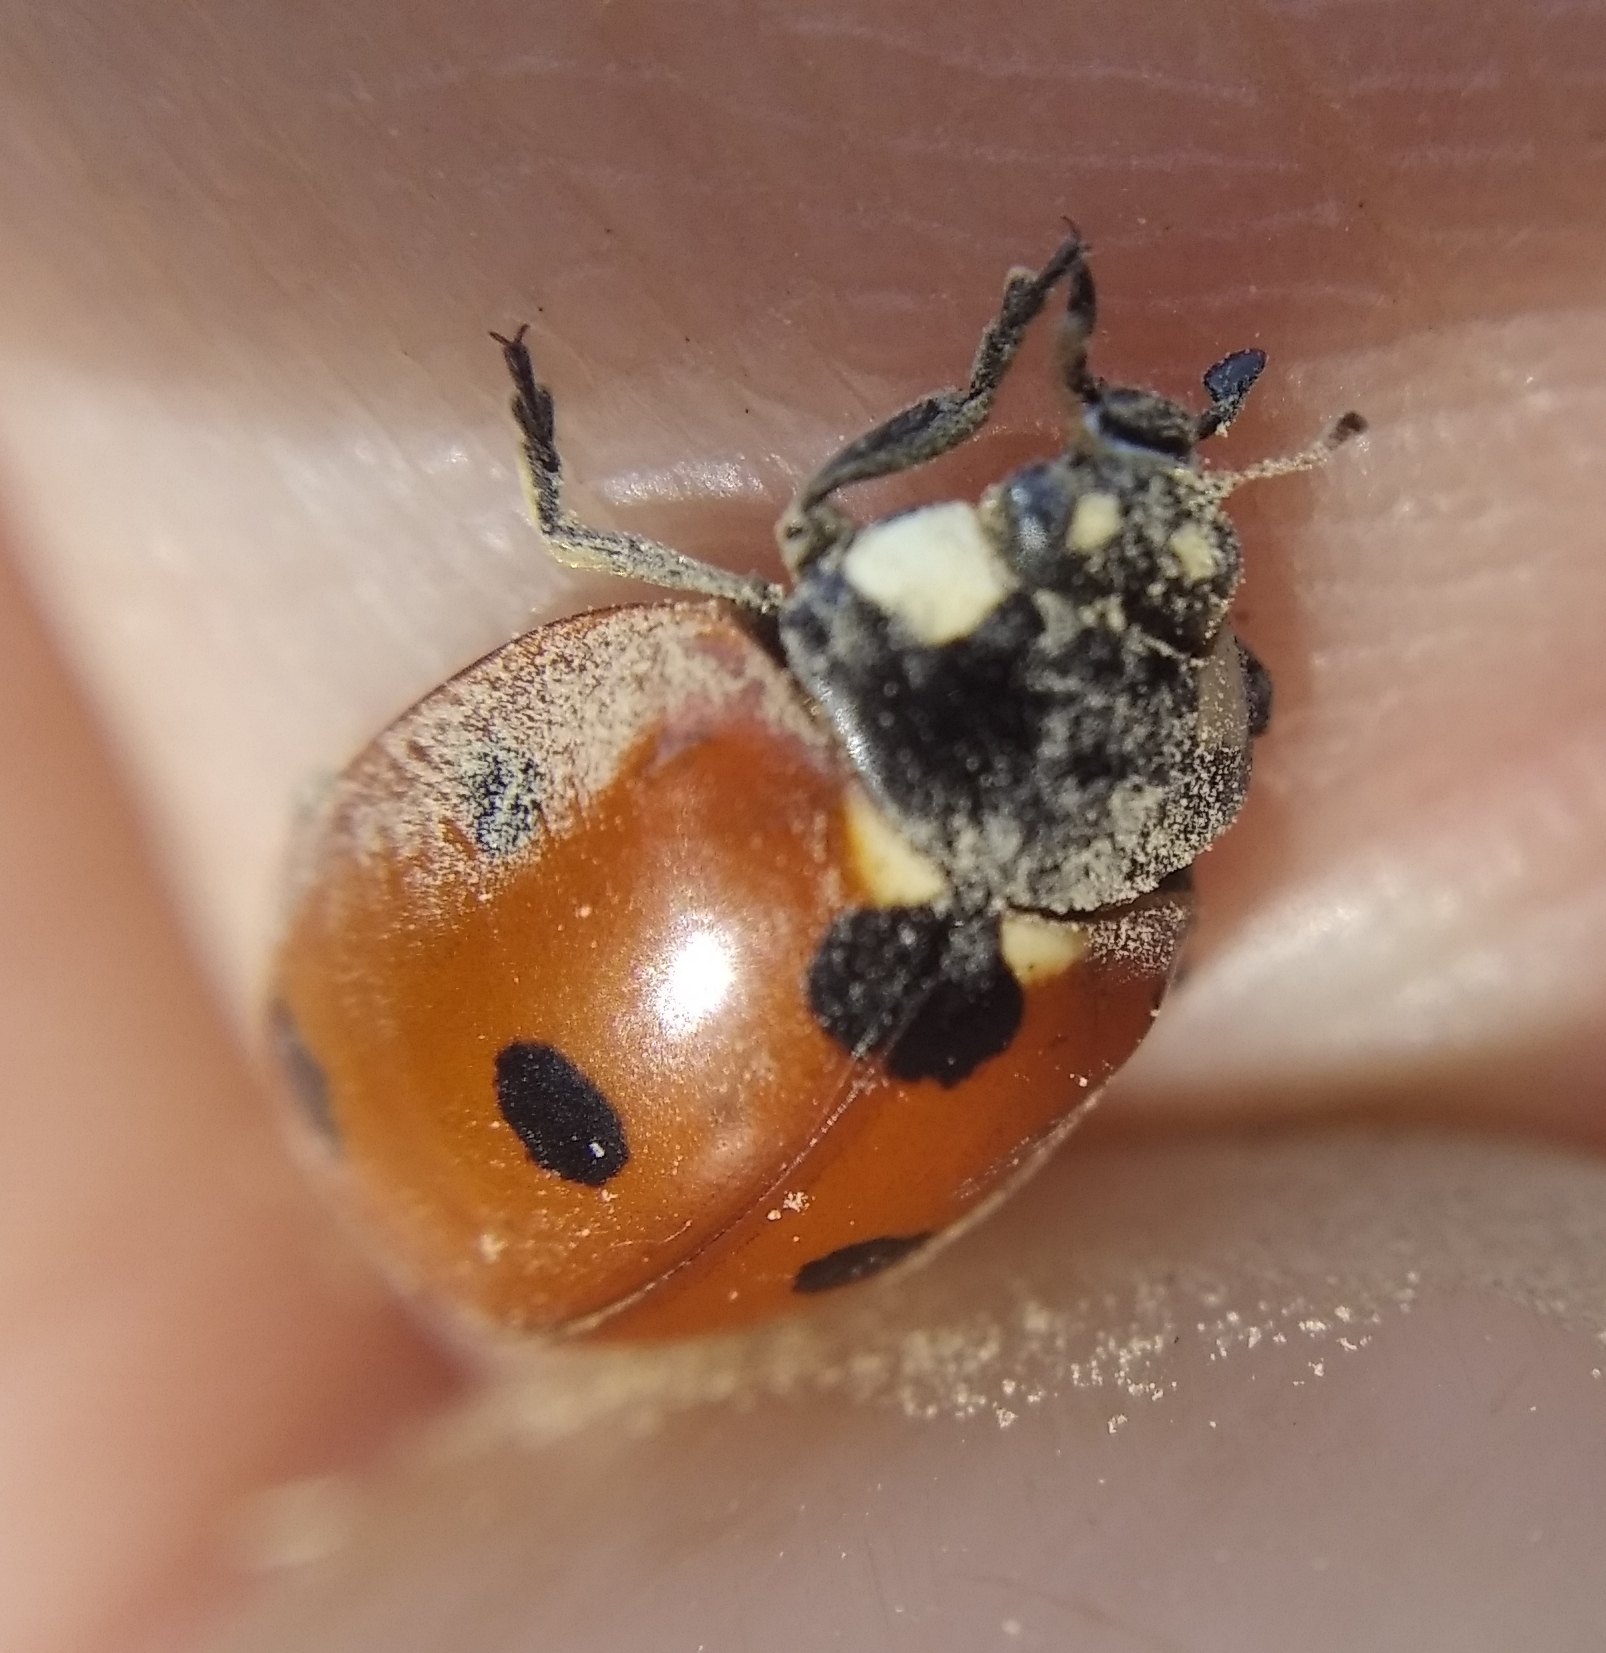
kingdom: Animalia
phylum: Arthropoda
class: Insecta
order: Coleoptera
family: Coccinellidae
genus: Coccinella
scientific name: Coccinella septempunctata
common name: Sevenspotted lady beetle
